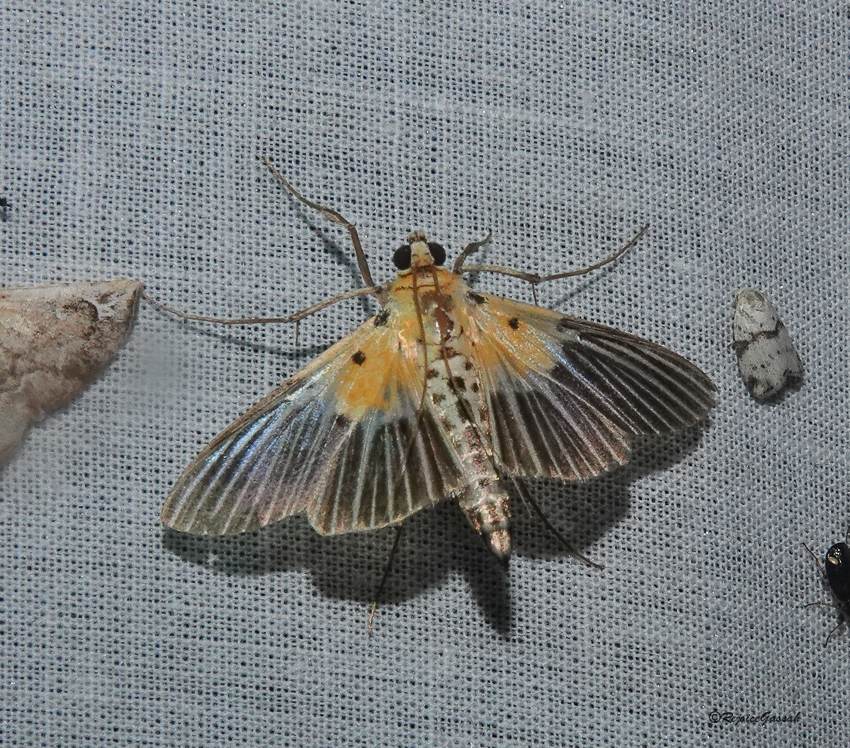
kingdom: Animalia
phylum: Arthropoda
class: Insecta
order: Lepidoptera
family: Crambidae
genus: Nevrina
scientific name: Nevrina procopia
